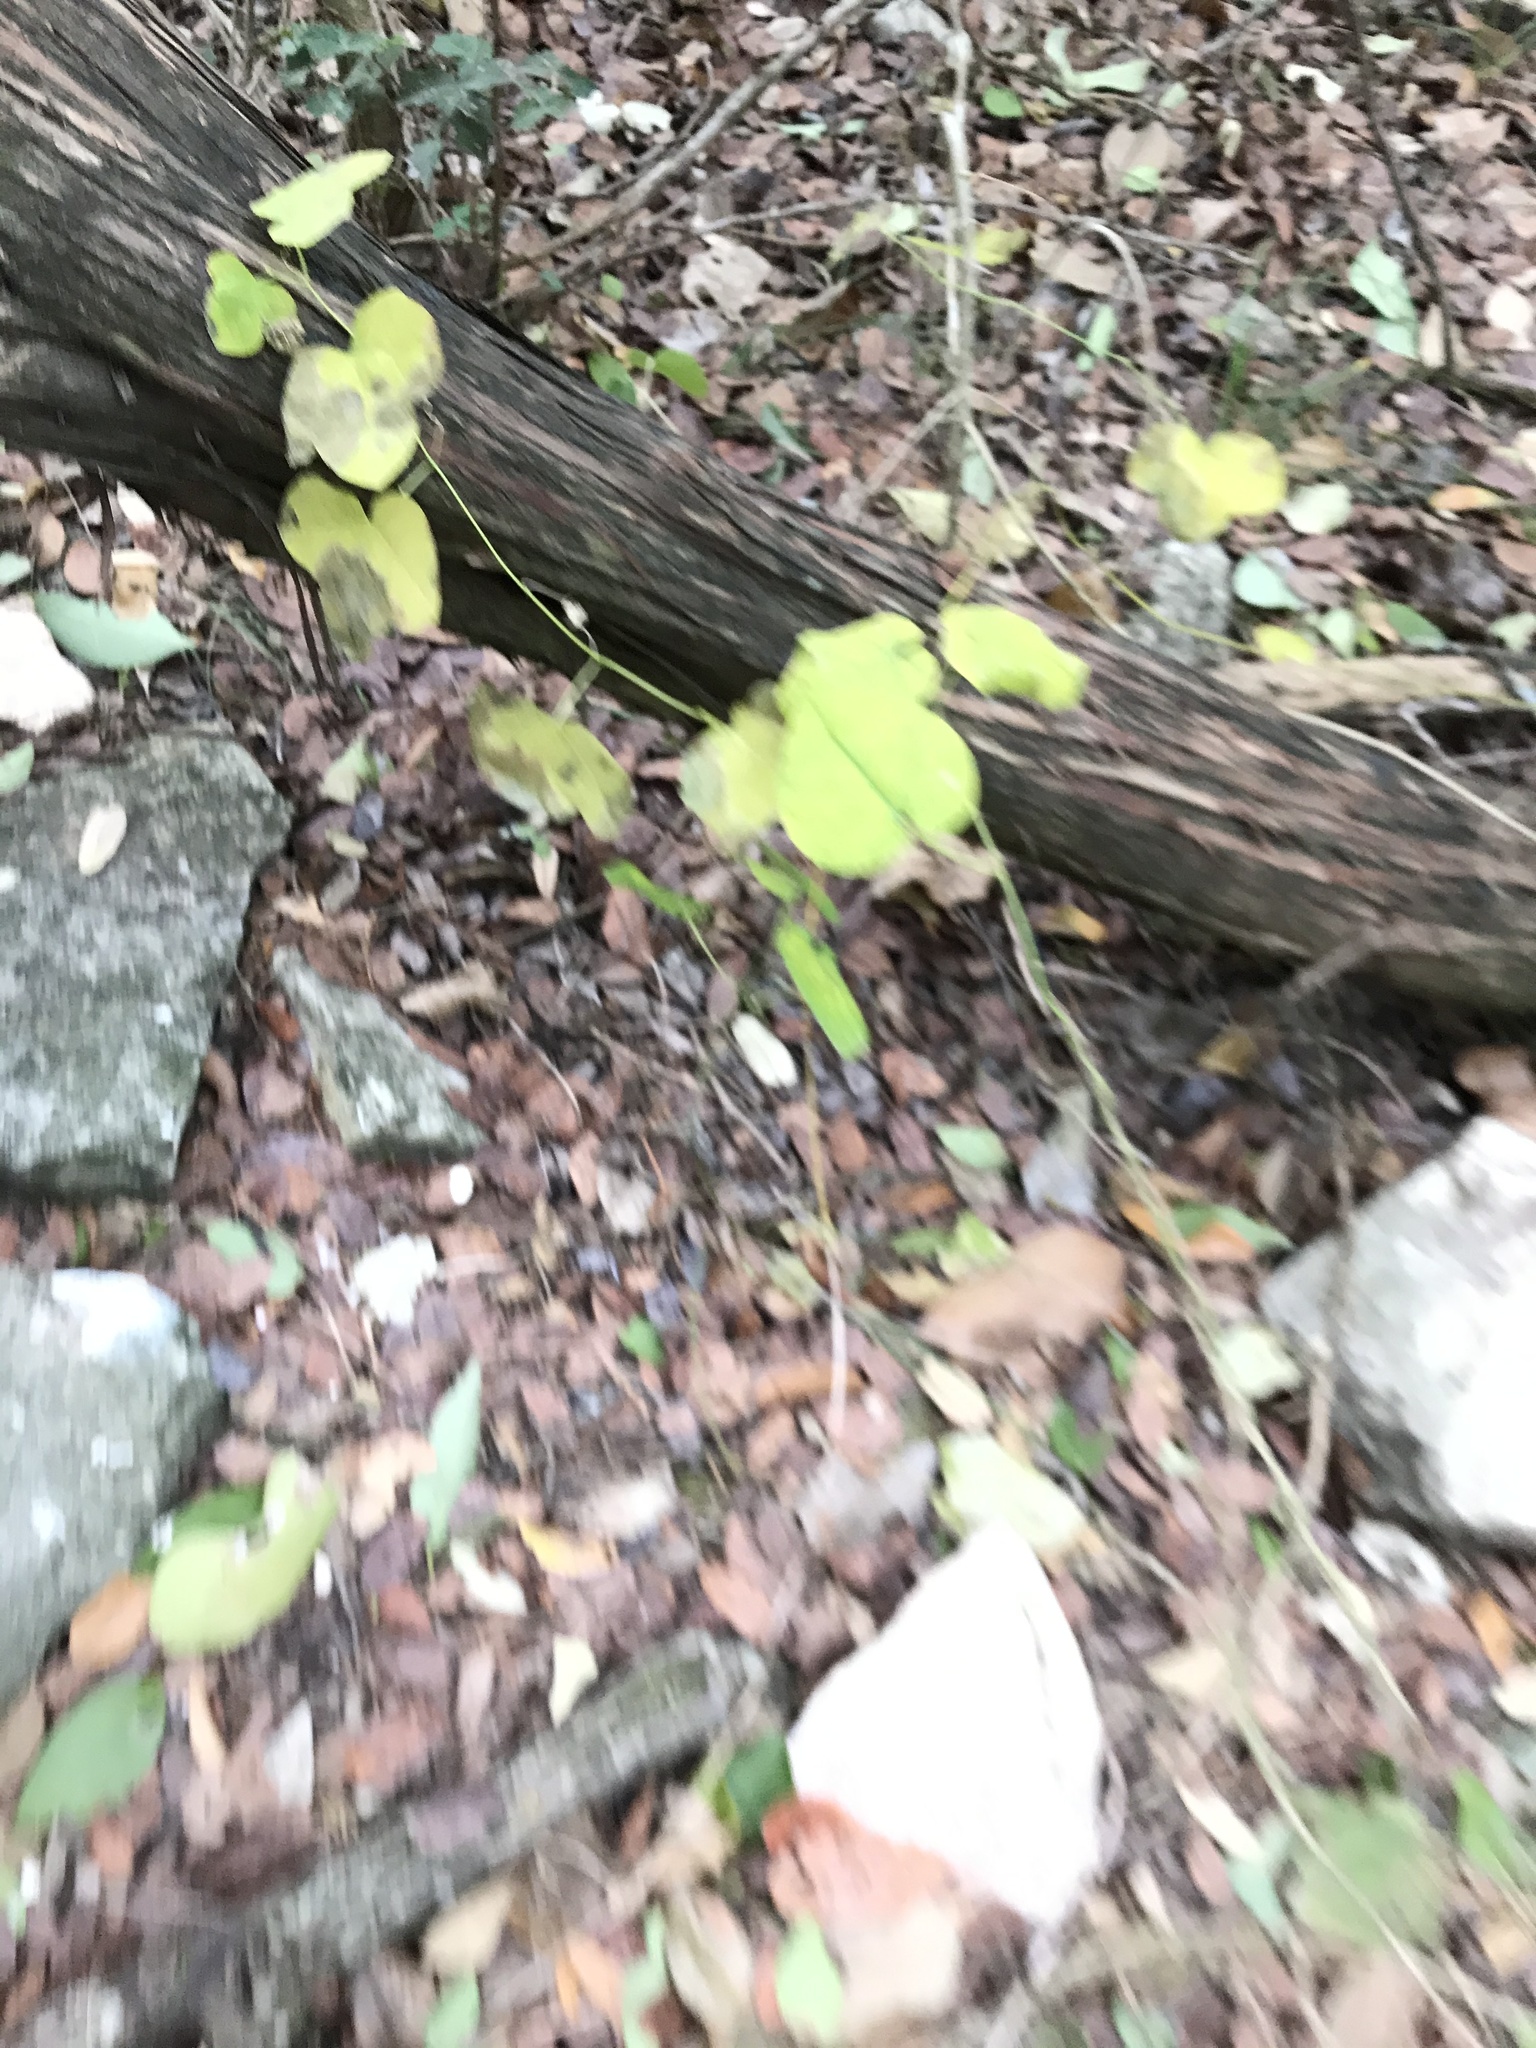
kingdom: Plantae
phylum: Tracheophyta
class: Magnoliopsida
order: Malpighiales
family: Passifloraceae
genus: Passiflora
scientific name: Passiflora lutea
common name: Yellow passionflower
